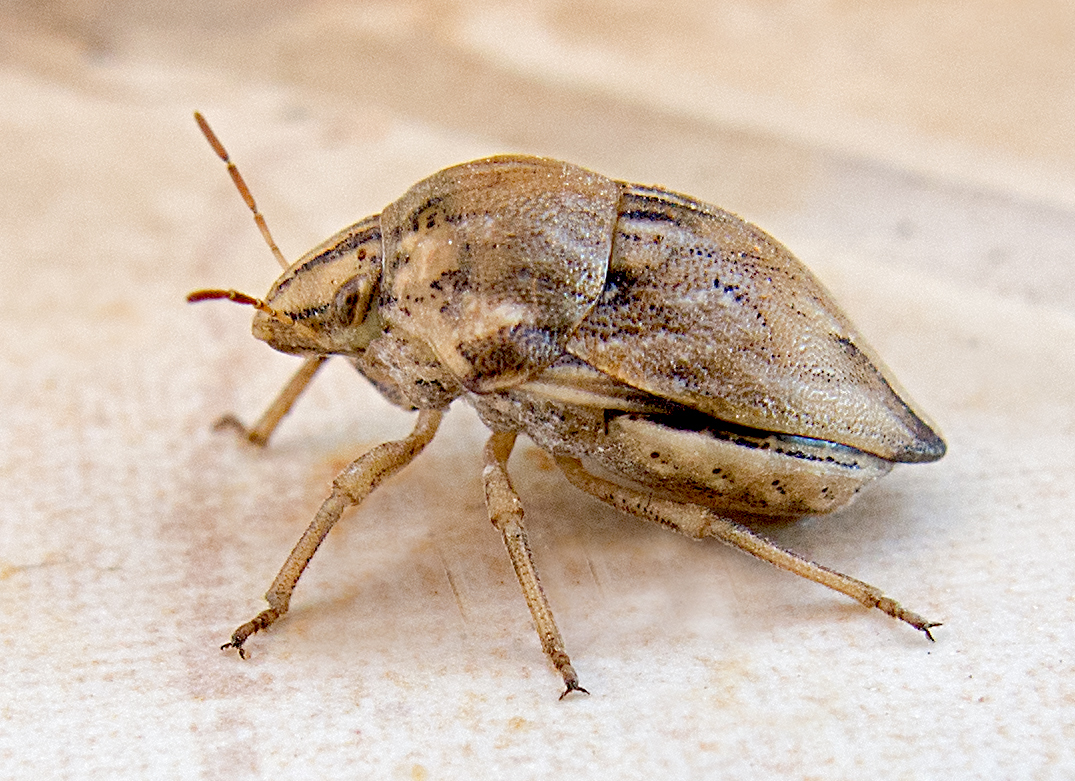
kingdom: Animalia
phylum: Arthropoda
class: Insecta
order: Hemiptera
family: Scutelleridae
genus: Odontotarsus
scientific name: Odontotarsus robustus
